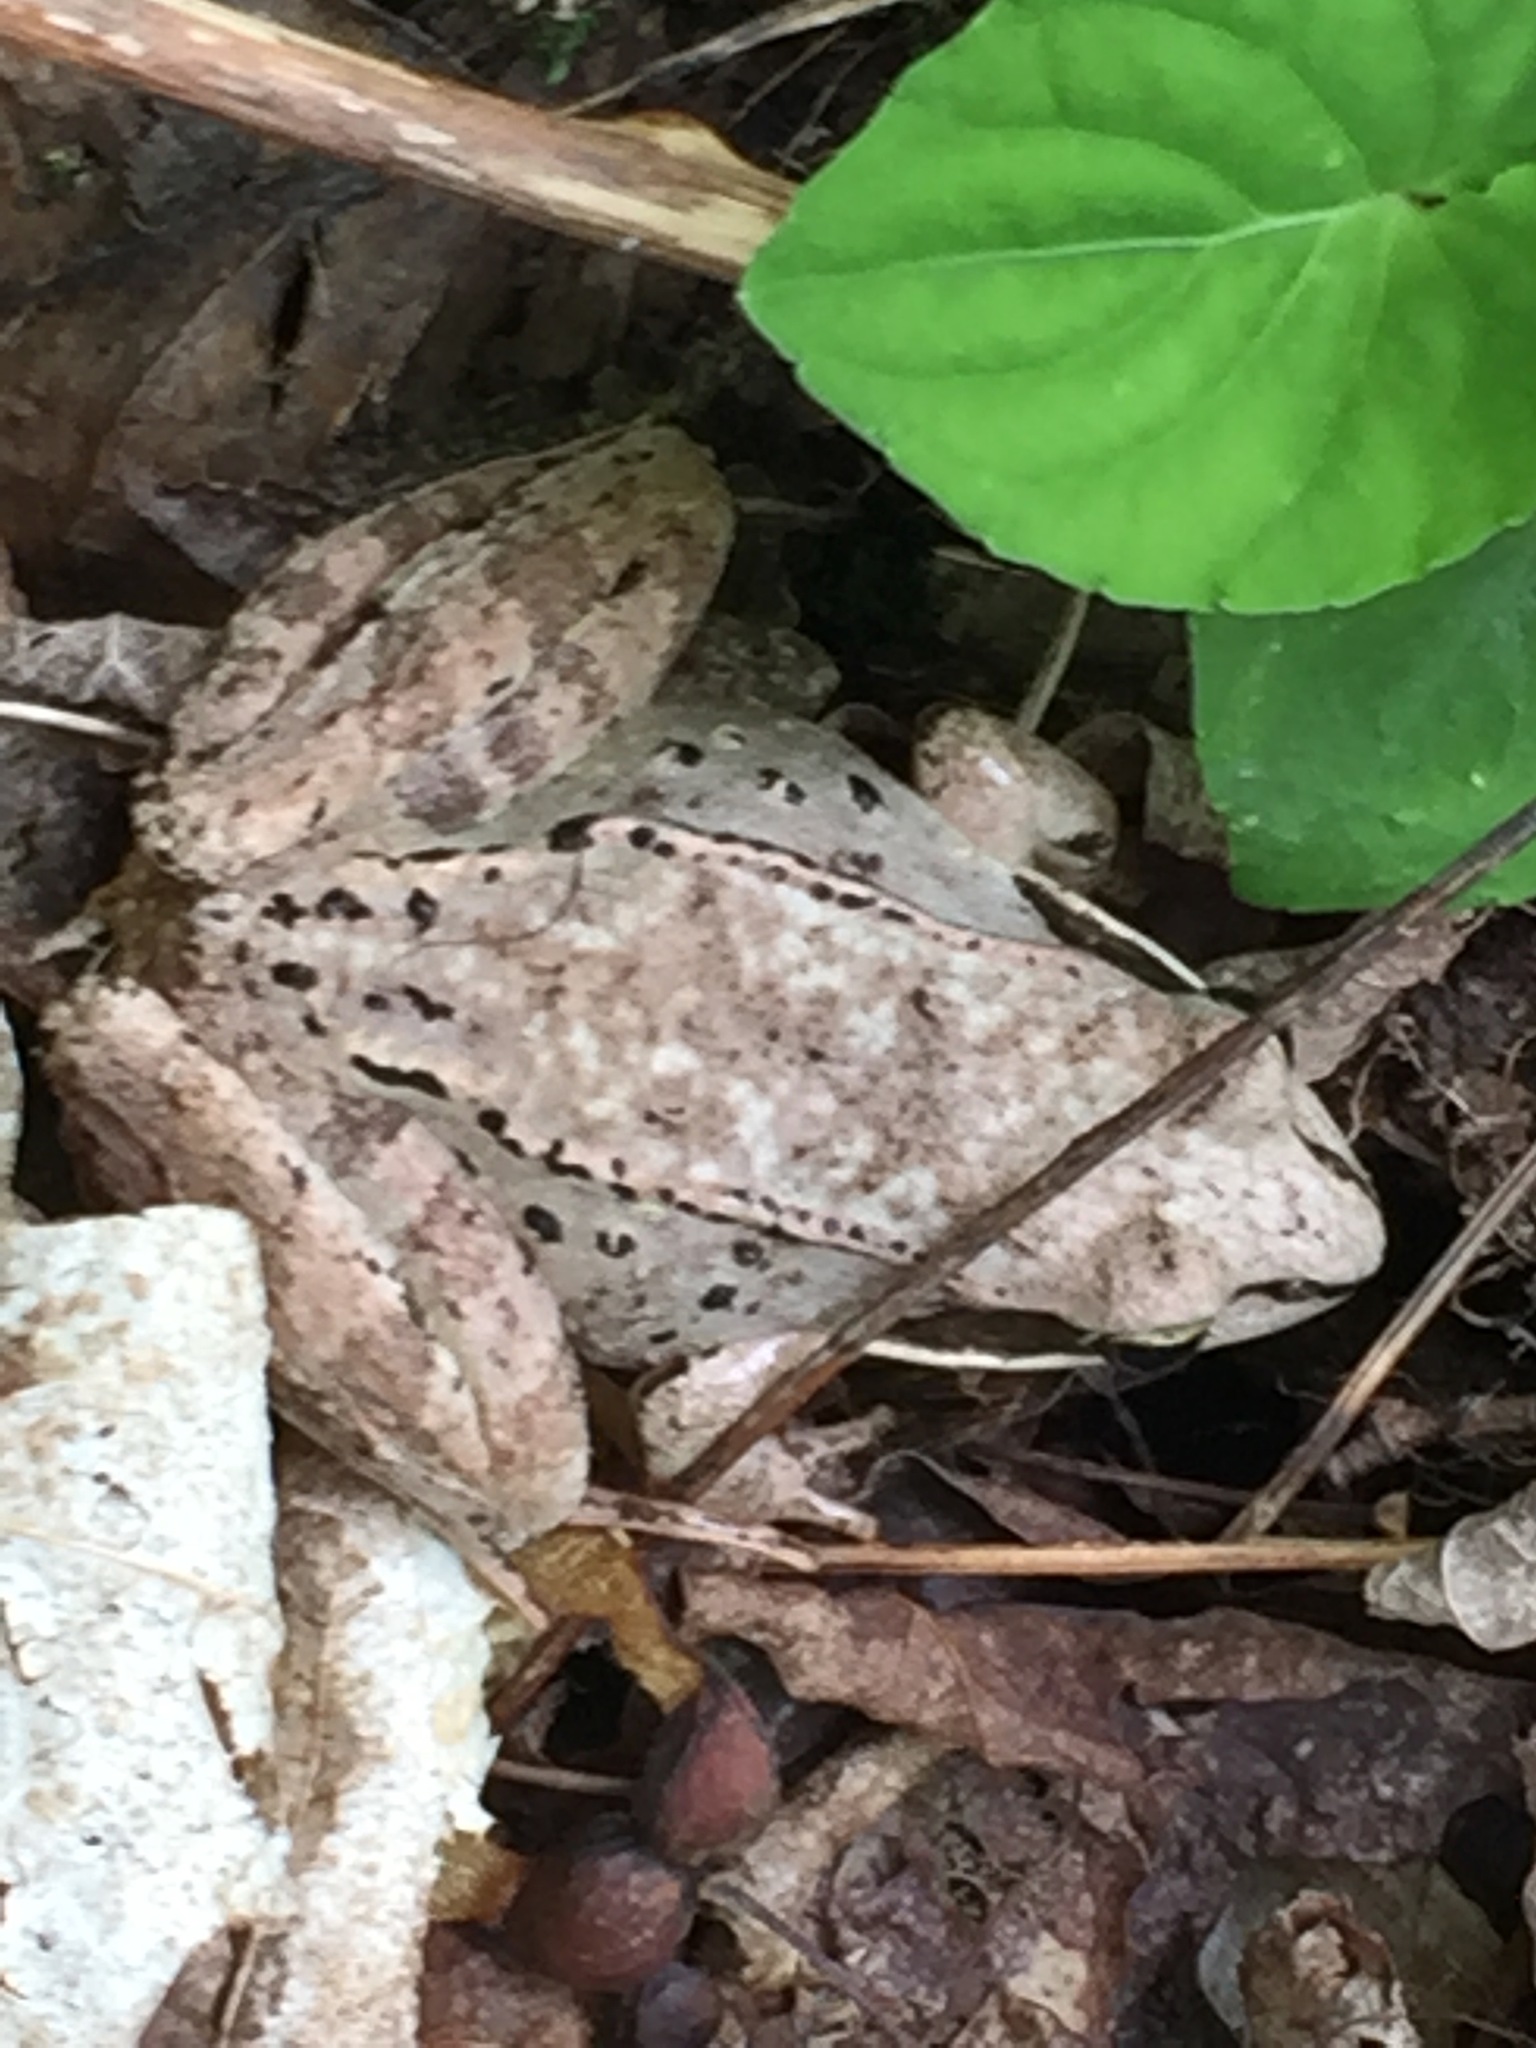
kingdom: Animalia
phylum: Chordata
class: Amphibia
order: Anura
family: Ranidae
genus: Lithobates
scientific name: Lithobates sylvaticus
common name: Wood frog
